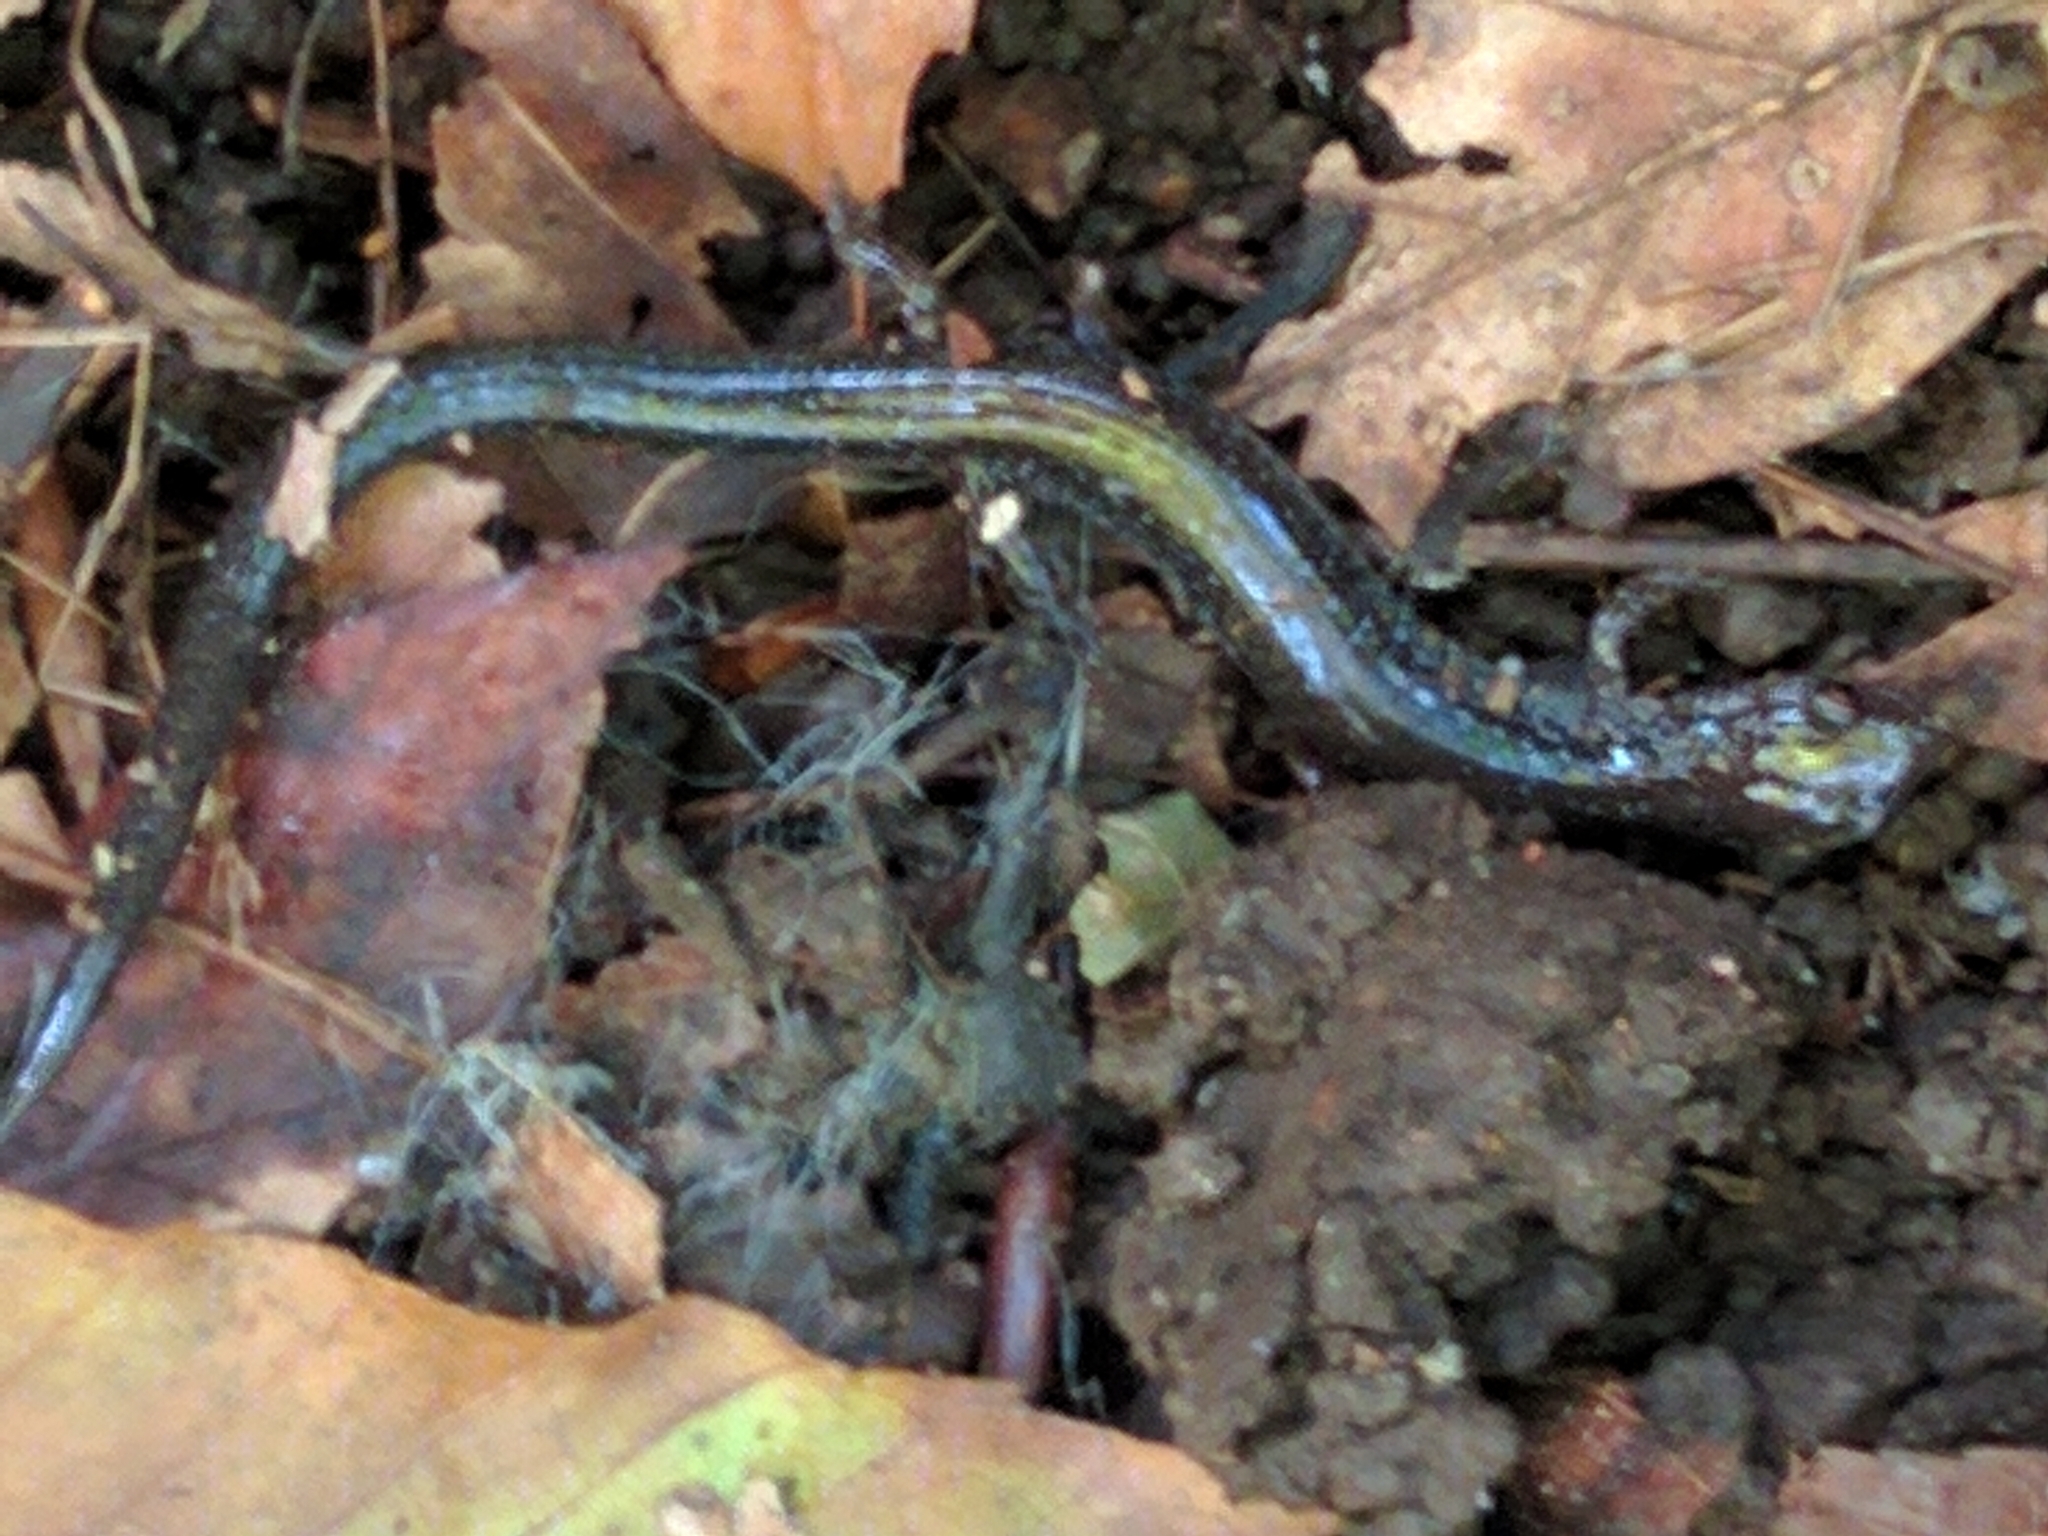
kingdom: Animalia
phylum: Chordata
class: Amphibia
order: Caudata
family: Plethodontidae
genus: Plethodon
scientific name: Plethodon cinereus
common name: Redback salamander
